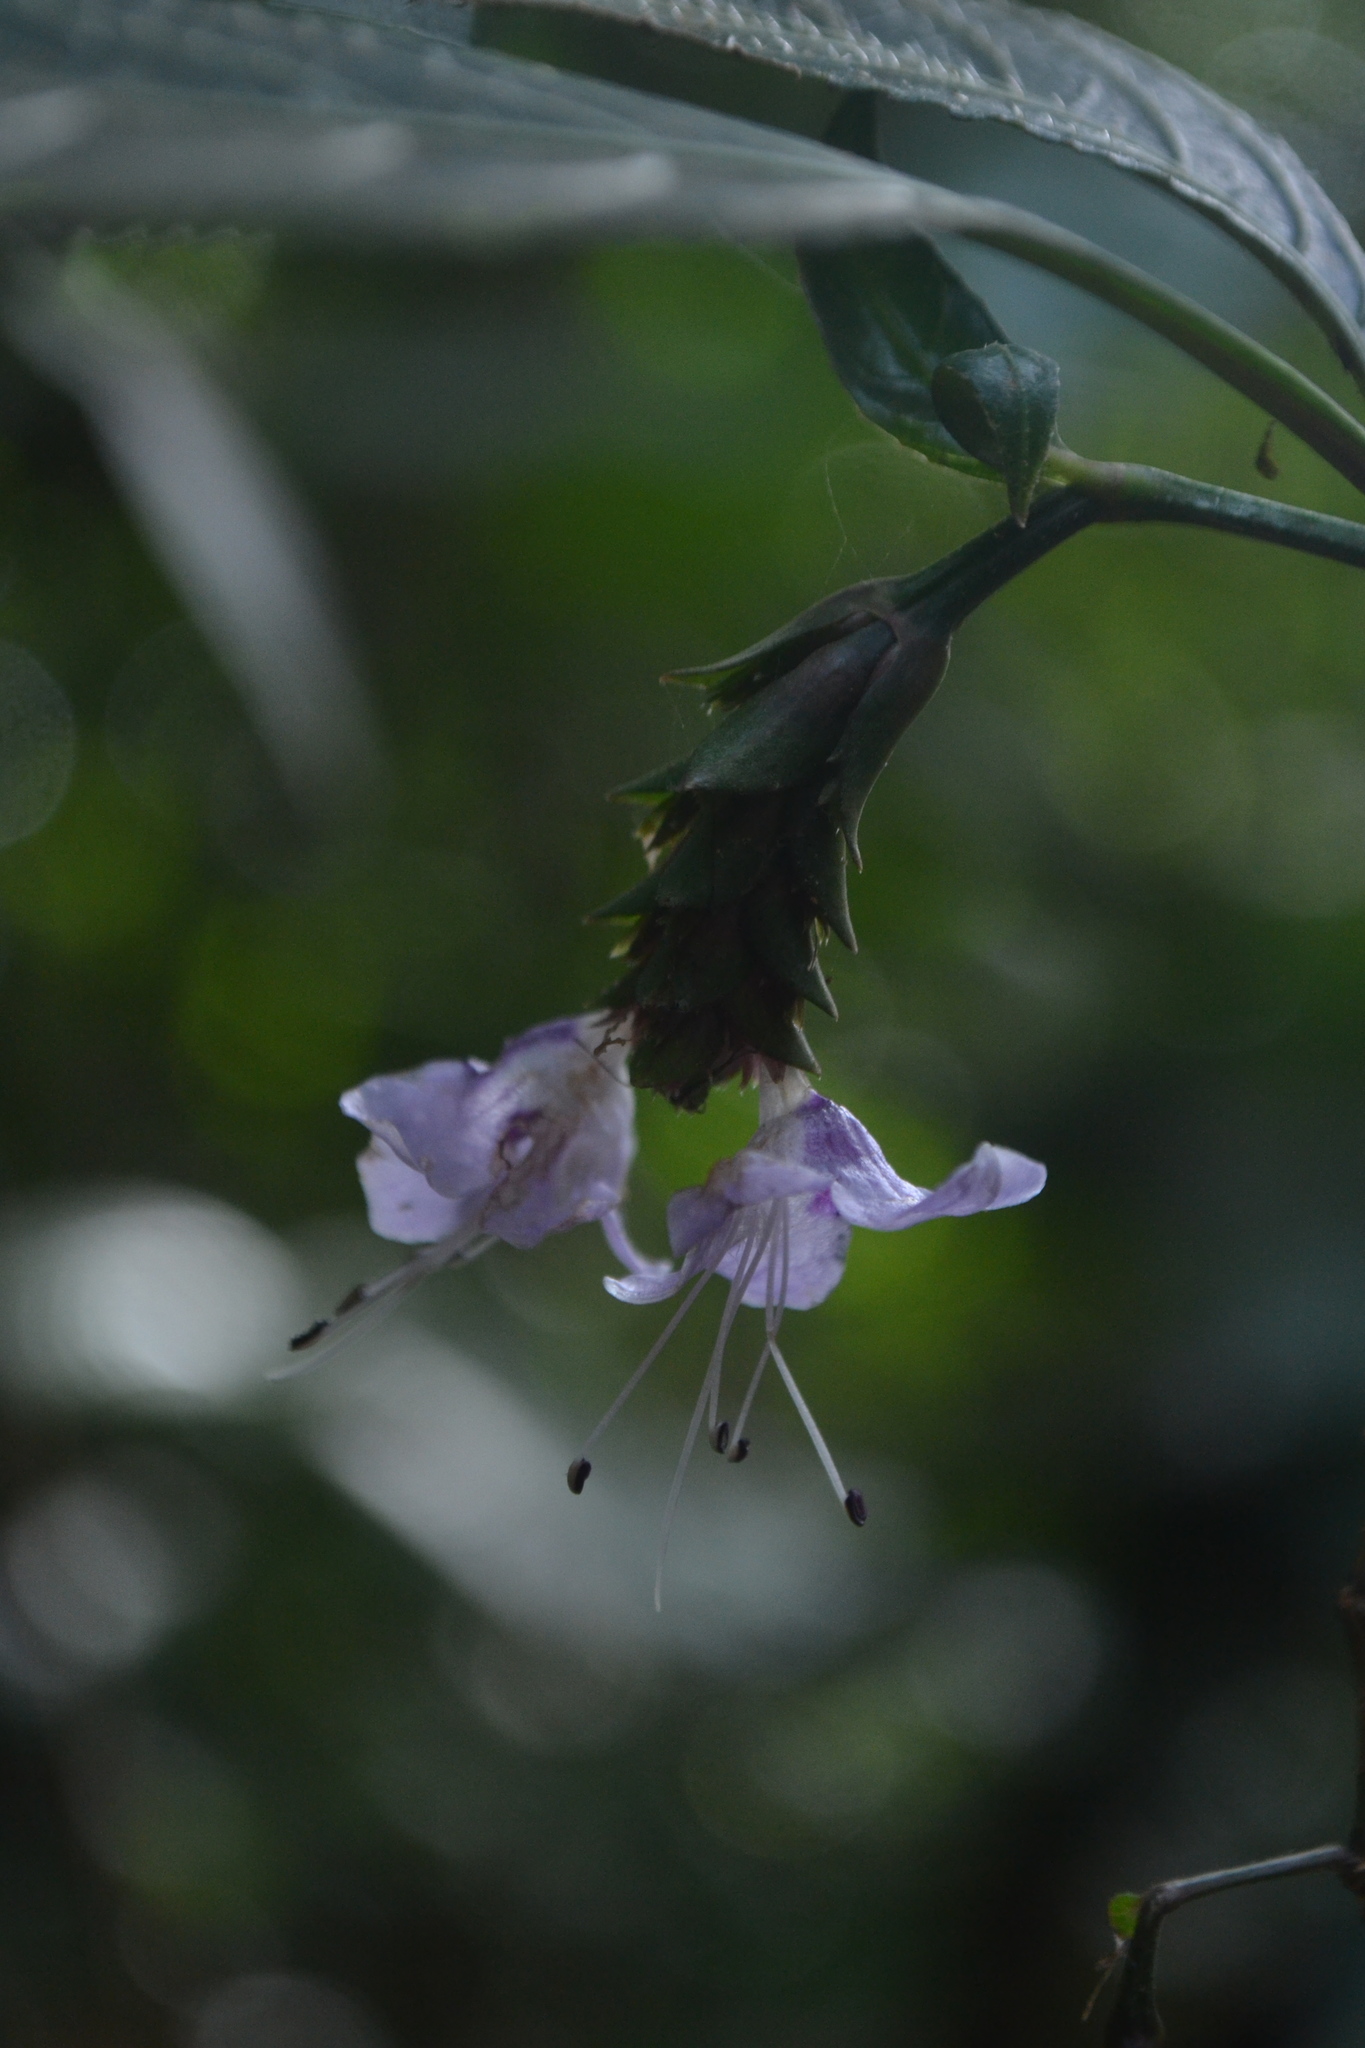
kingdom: Plantae
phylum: Tracheophyta
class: Magnoliopsida
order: Lamiales
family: Acanthaceae
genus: Strobilanthes
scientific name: Strobilanthes ciliata
